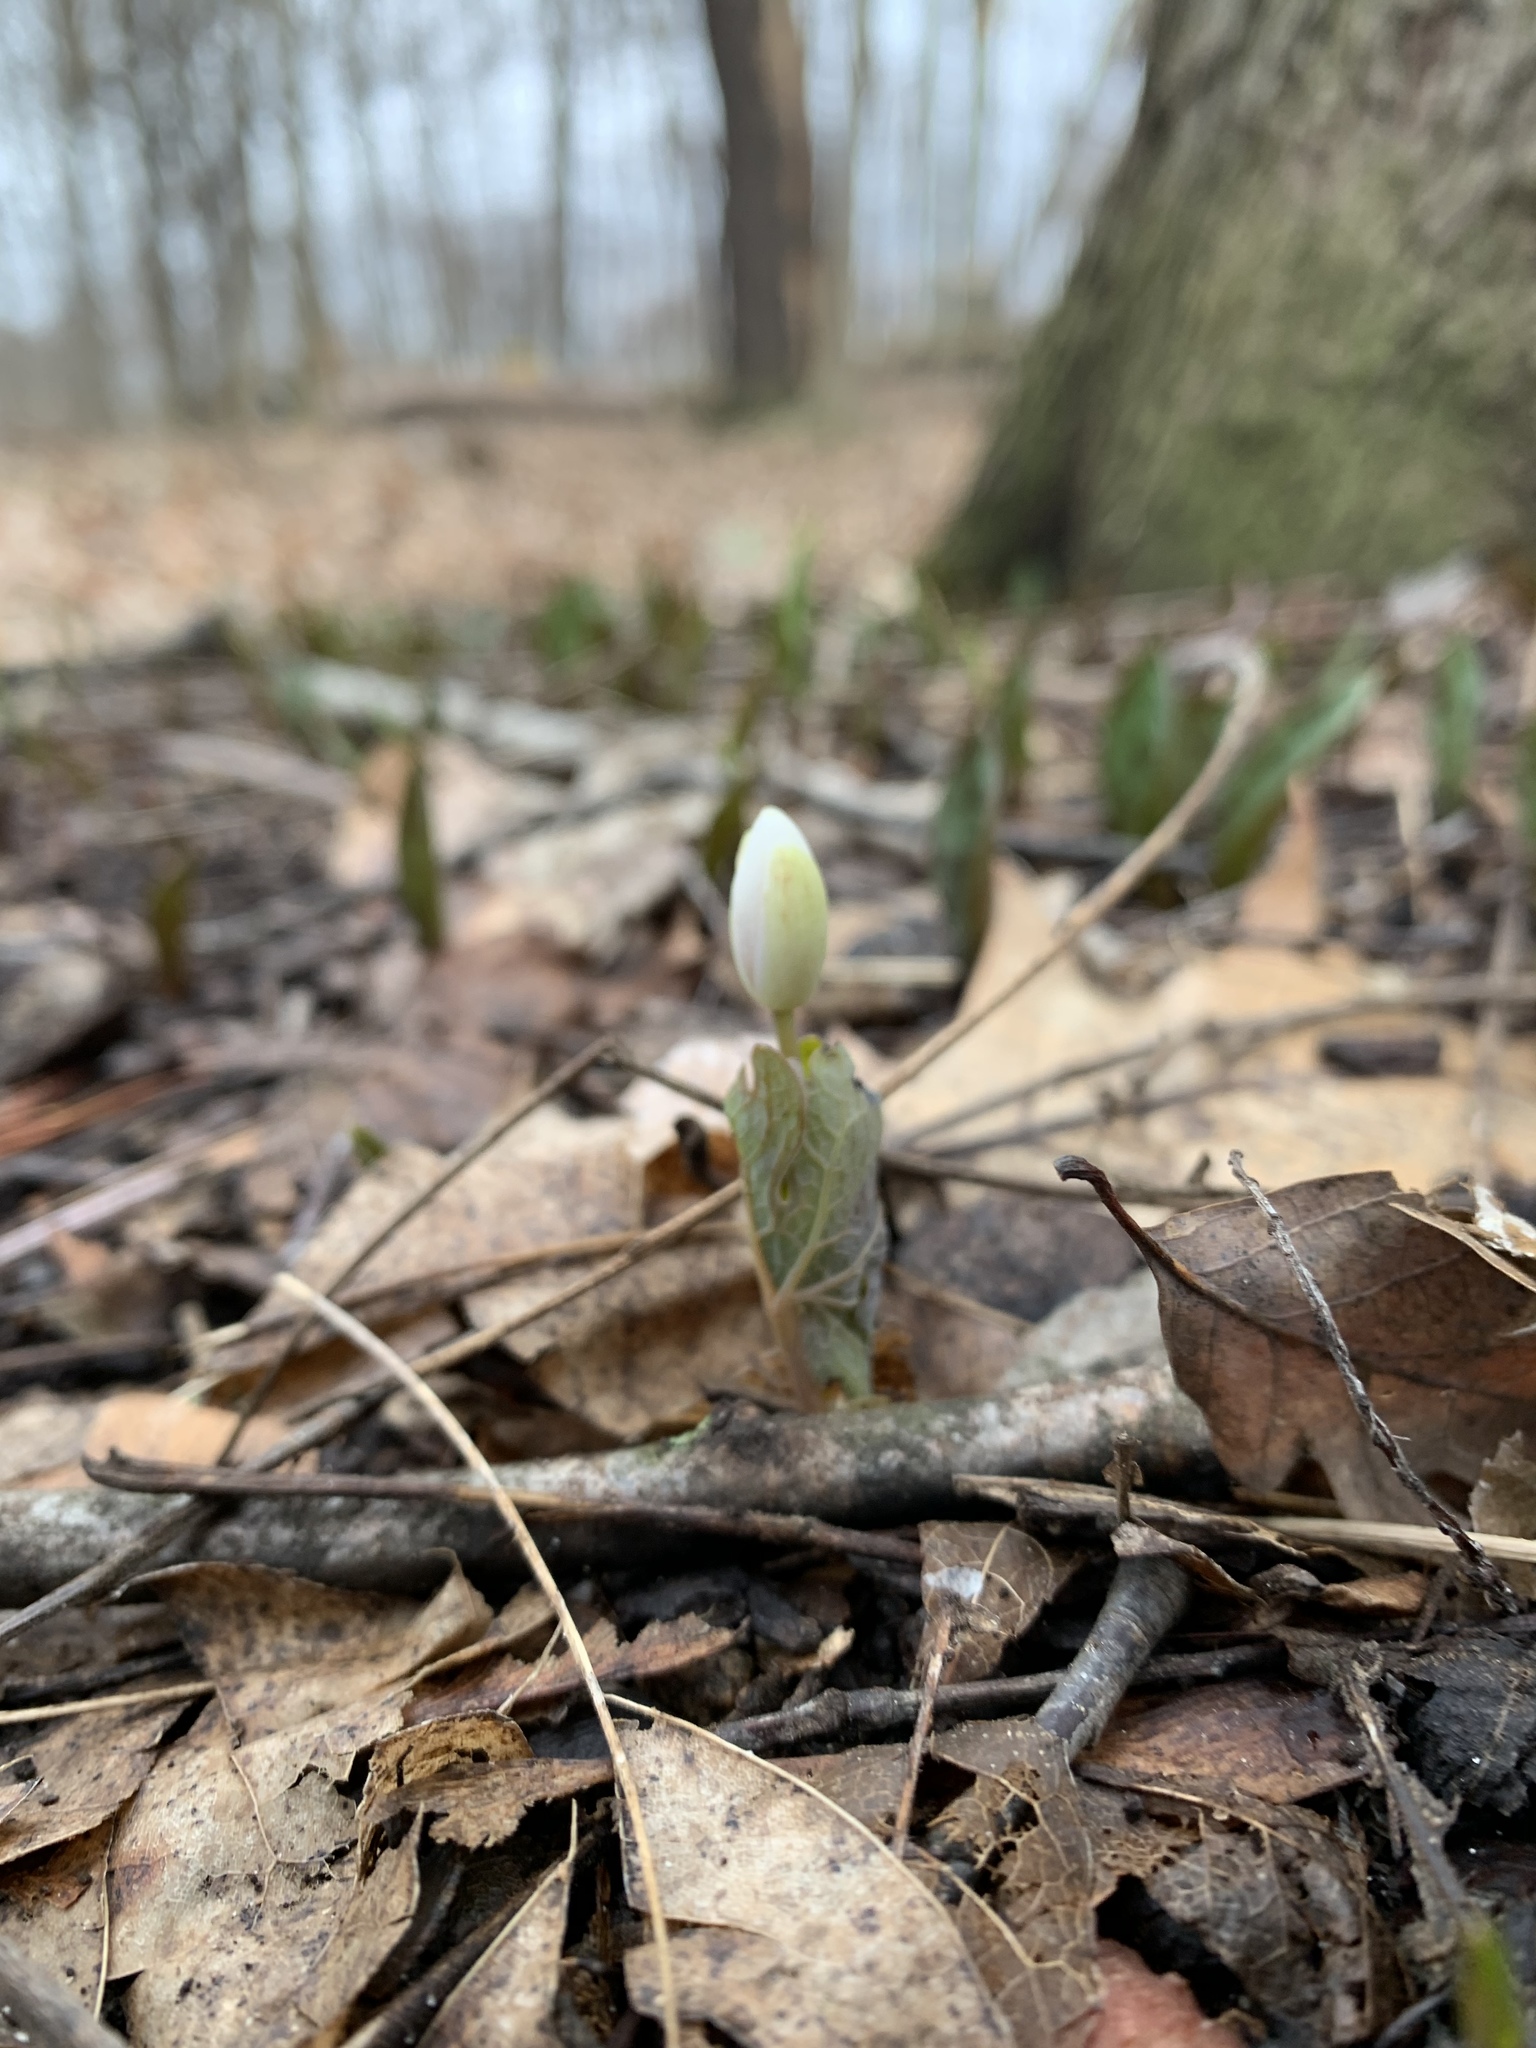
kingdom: Plantae
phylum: Tracheophyta
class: Magnoliopsida
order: Ranunculales
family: Papaveraceae
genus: Sanguinaria
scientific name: Sanguinaria canadensis
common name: Bloodroot
